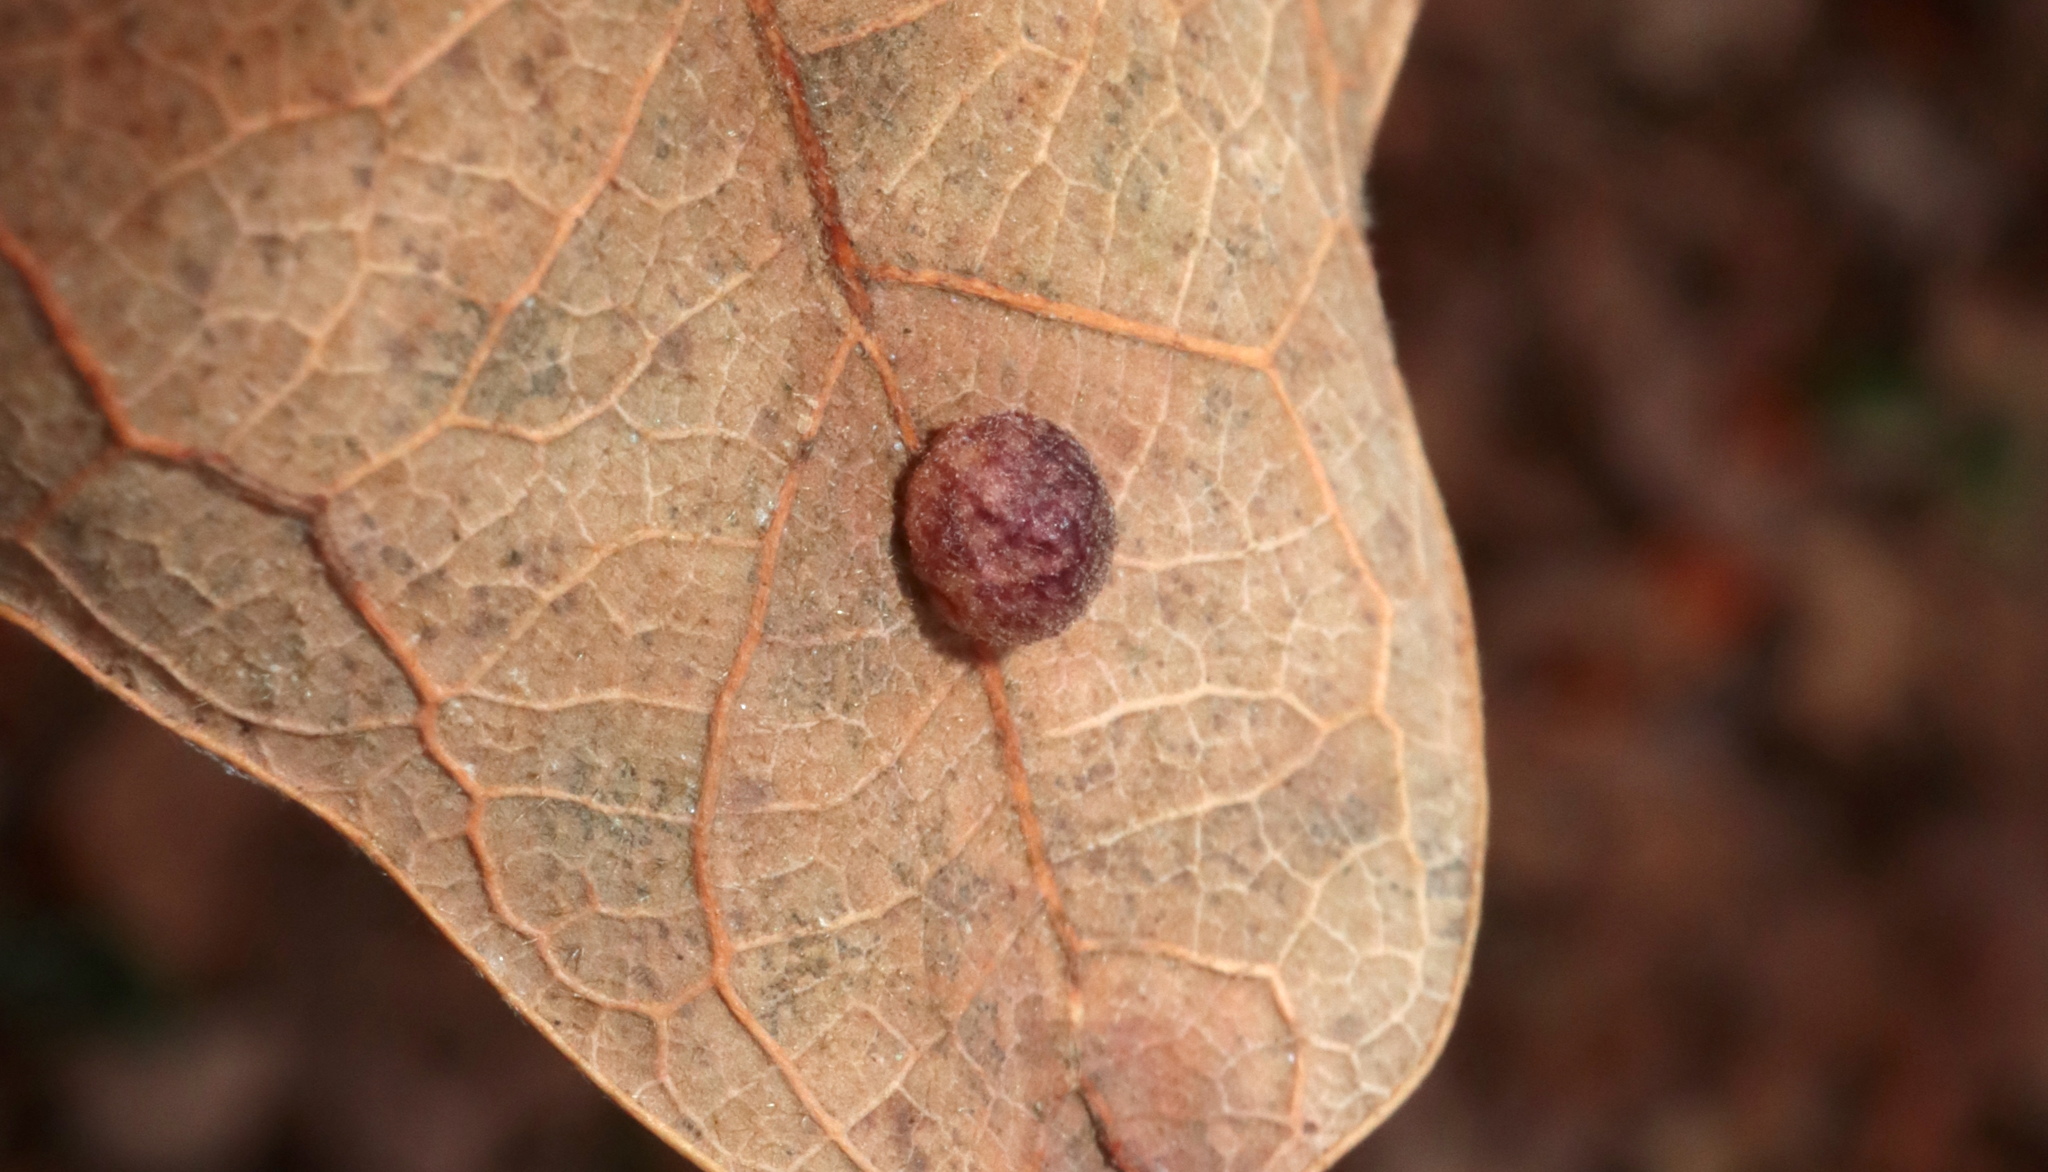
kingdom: Animalia
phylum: Arthropoda
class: Insecta
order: Hymenoptera
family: Cynipidae
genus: Atrusca
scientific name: Atrusca
